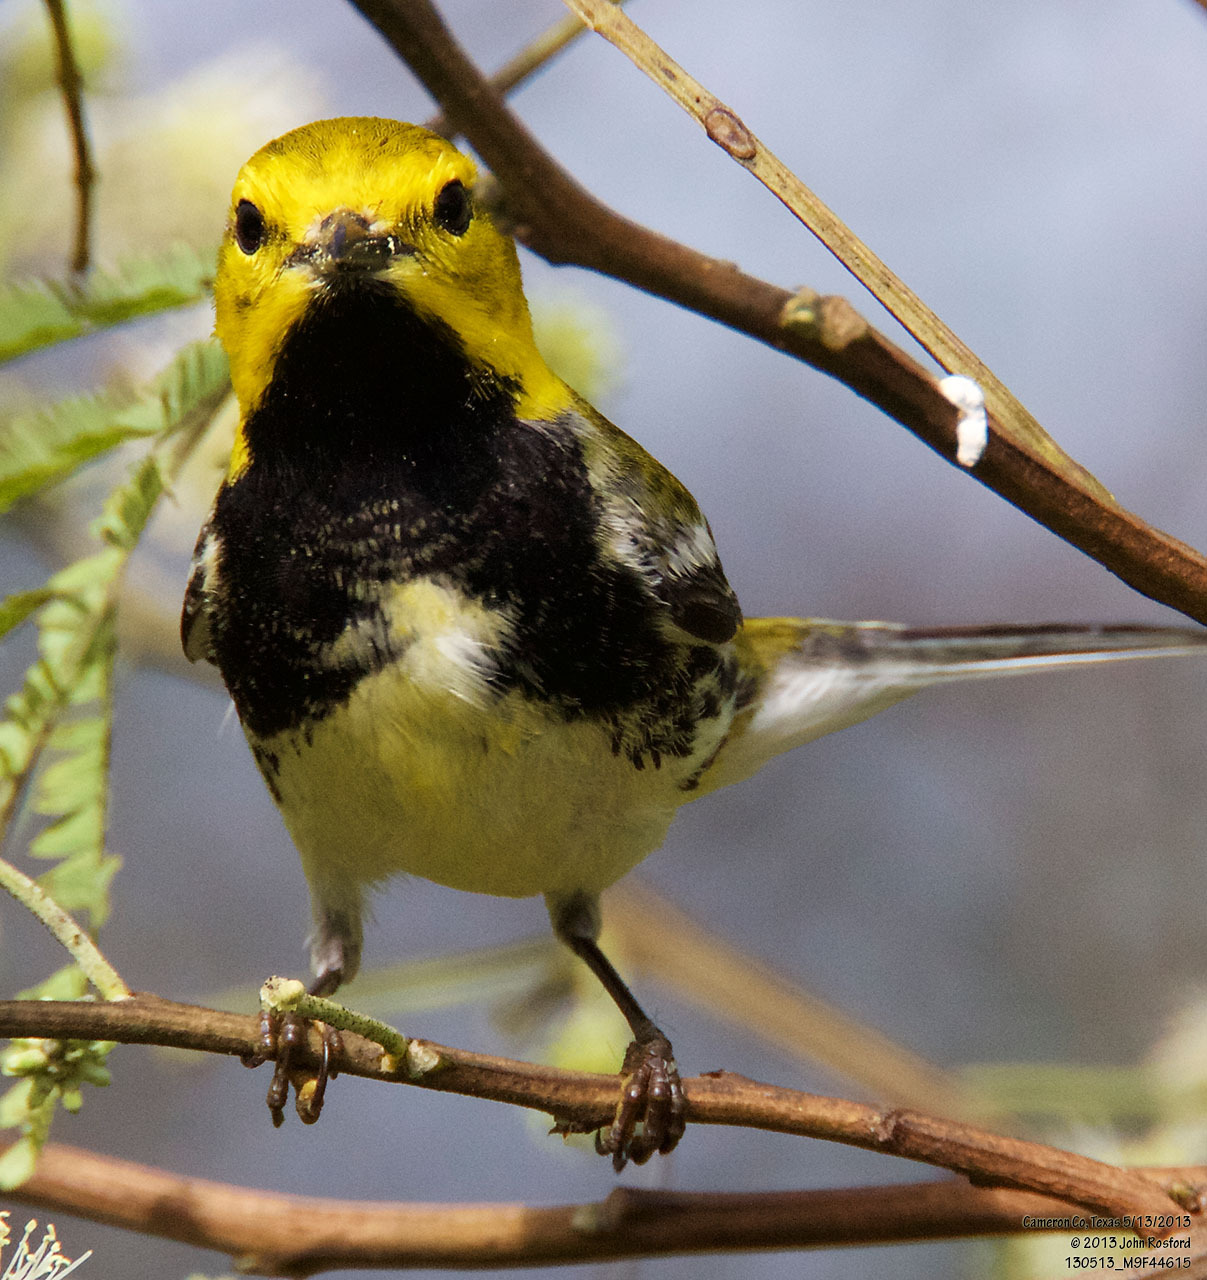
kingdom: Animalia
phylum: Chordata
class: Aves
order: Passeriformes
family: Parulidae
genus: Setophaga
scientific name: Setophaga virens
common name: Black-throated green warbler
